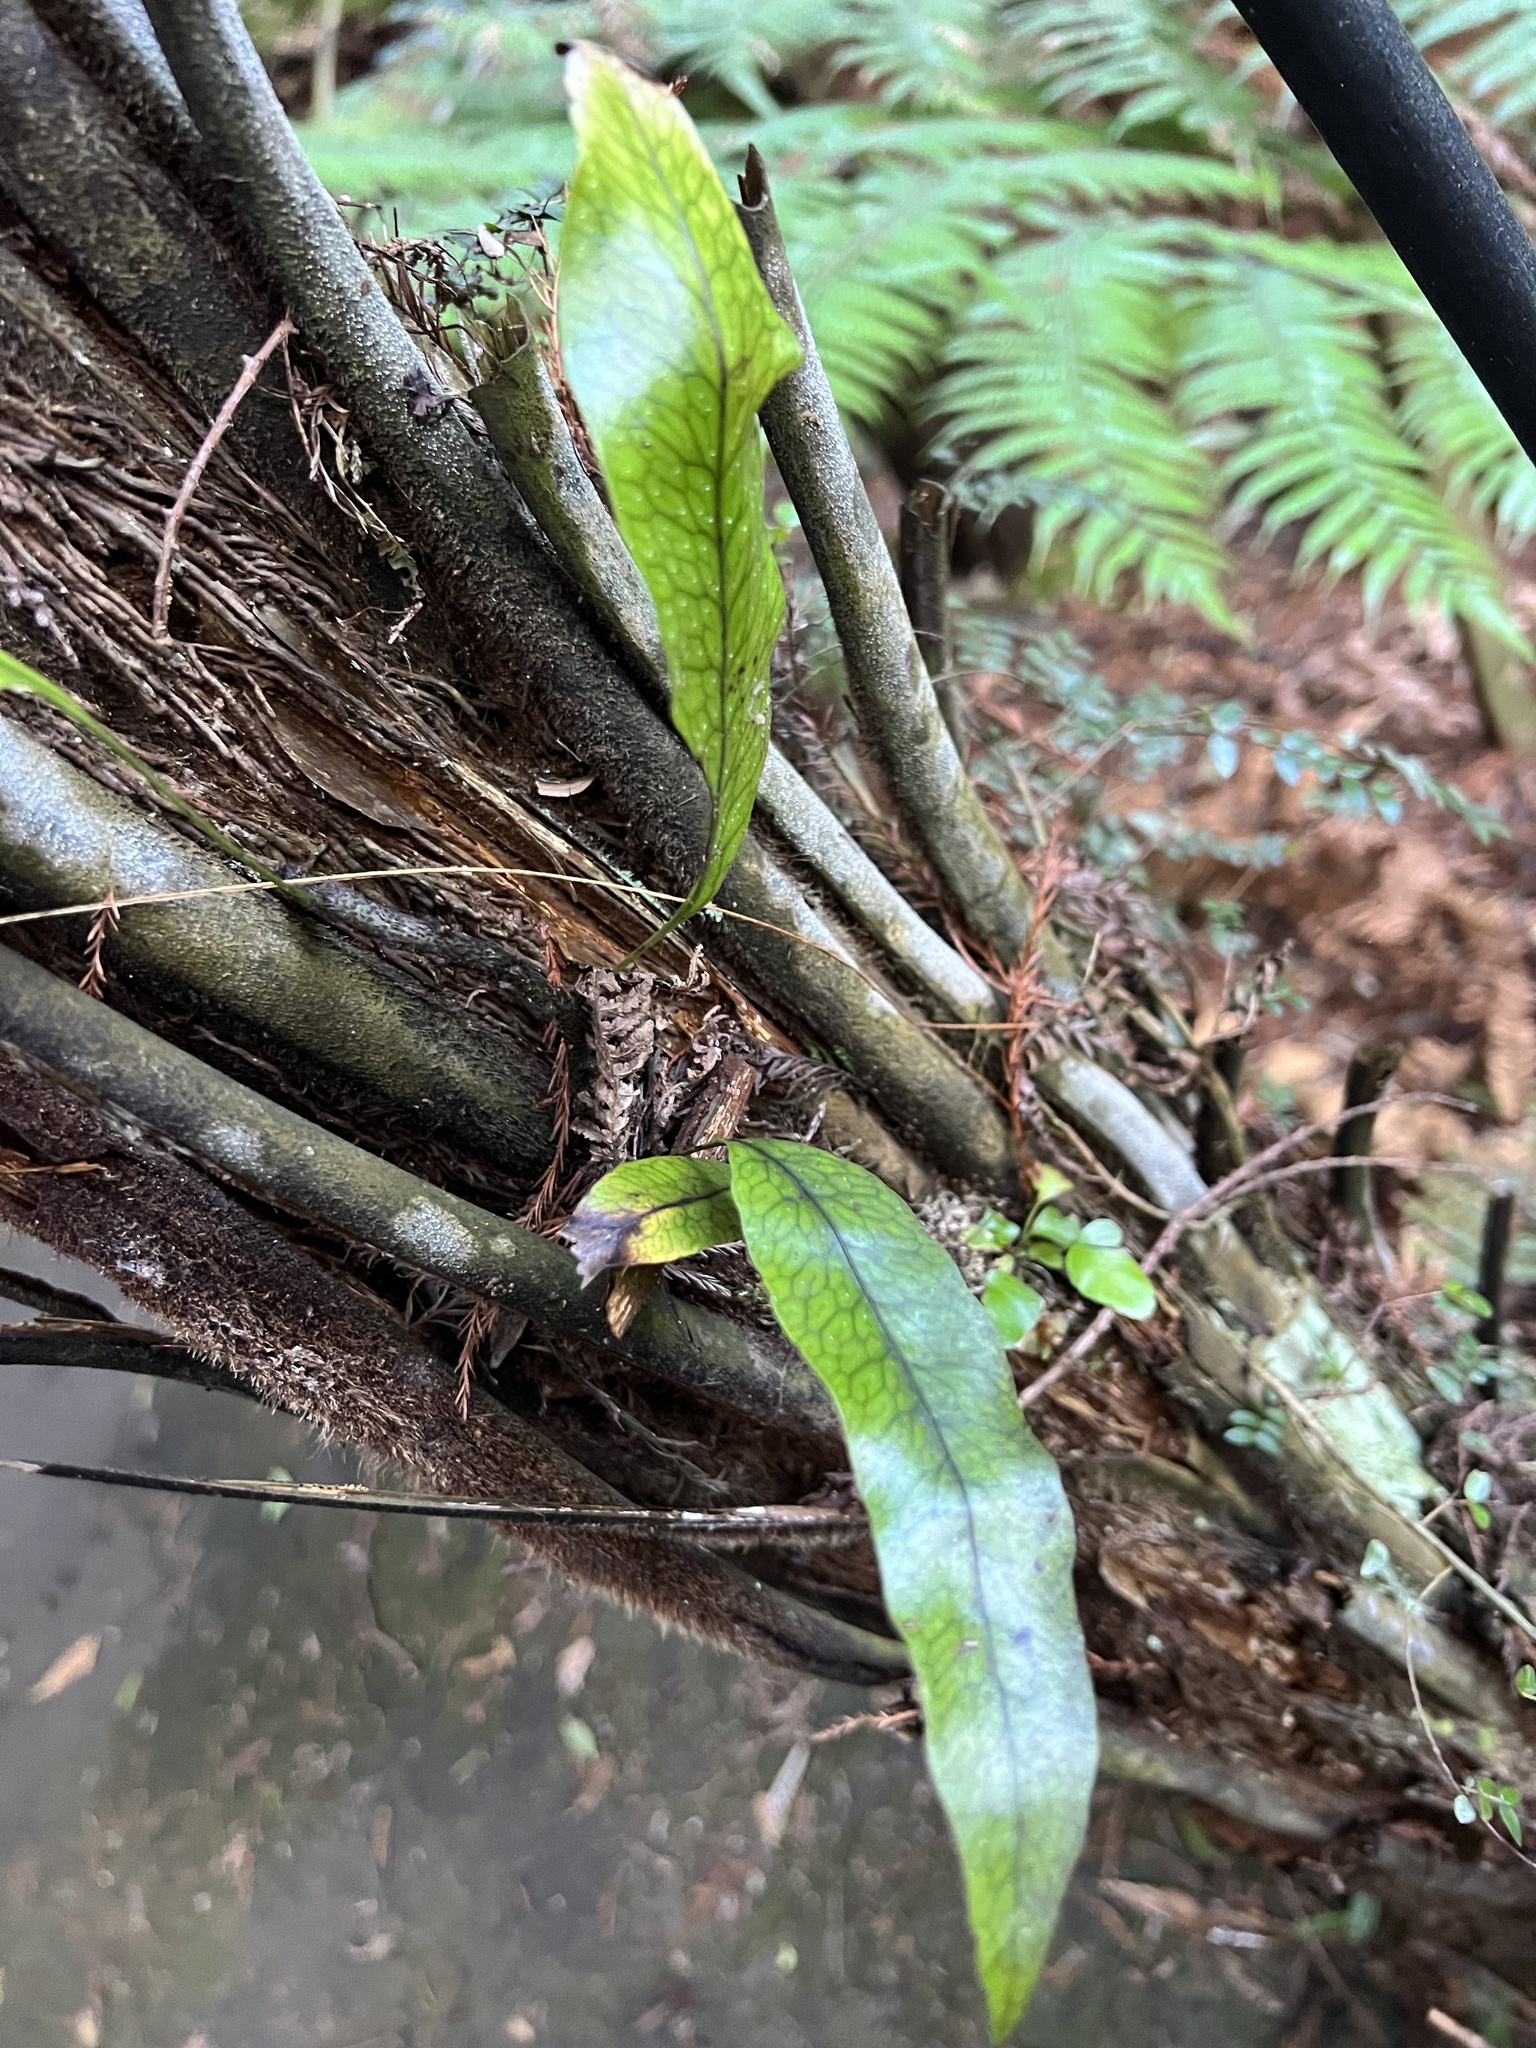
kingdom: Plantae
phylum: Tracheophyta
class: Polypodiopsida
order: Polypodiales
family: Polypodiaceae
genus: Lecanopteris
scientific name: Lecanopteris pustulata
